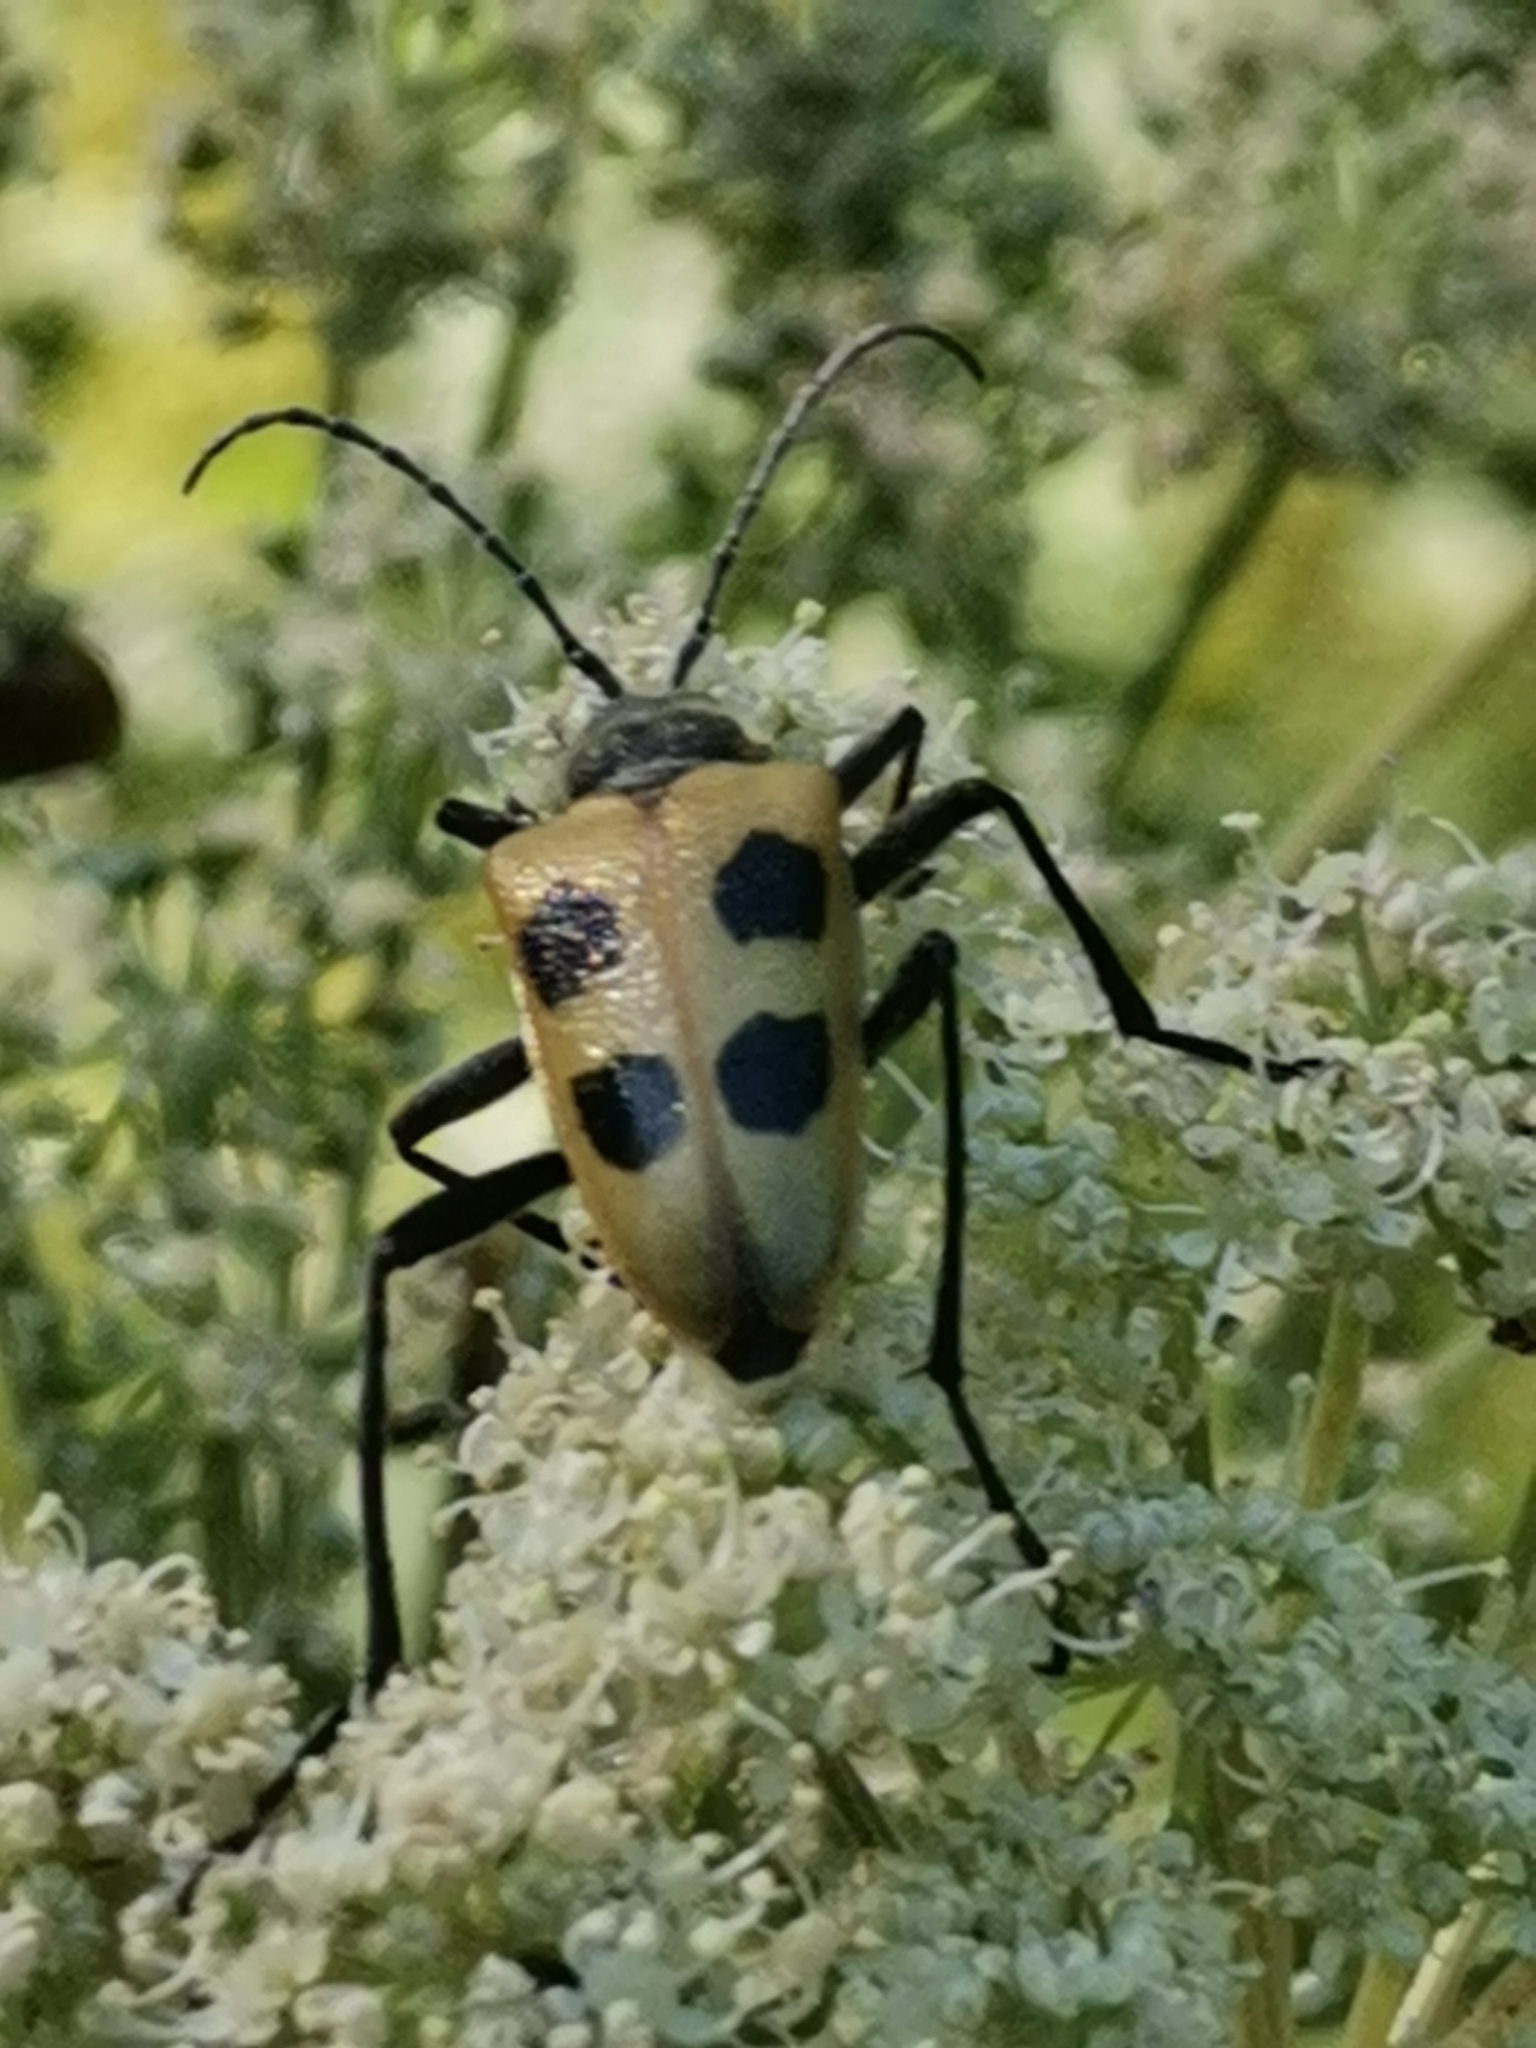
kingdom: Animalia
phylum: Arthropoda
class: Insecta
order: Coleoptera
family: Cerambycidae
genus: Pachyta
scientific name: Pachyta quadrimaculata
